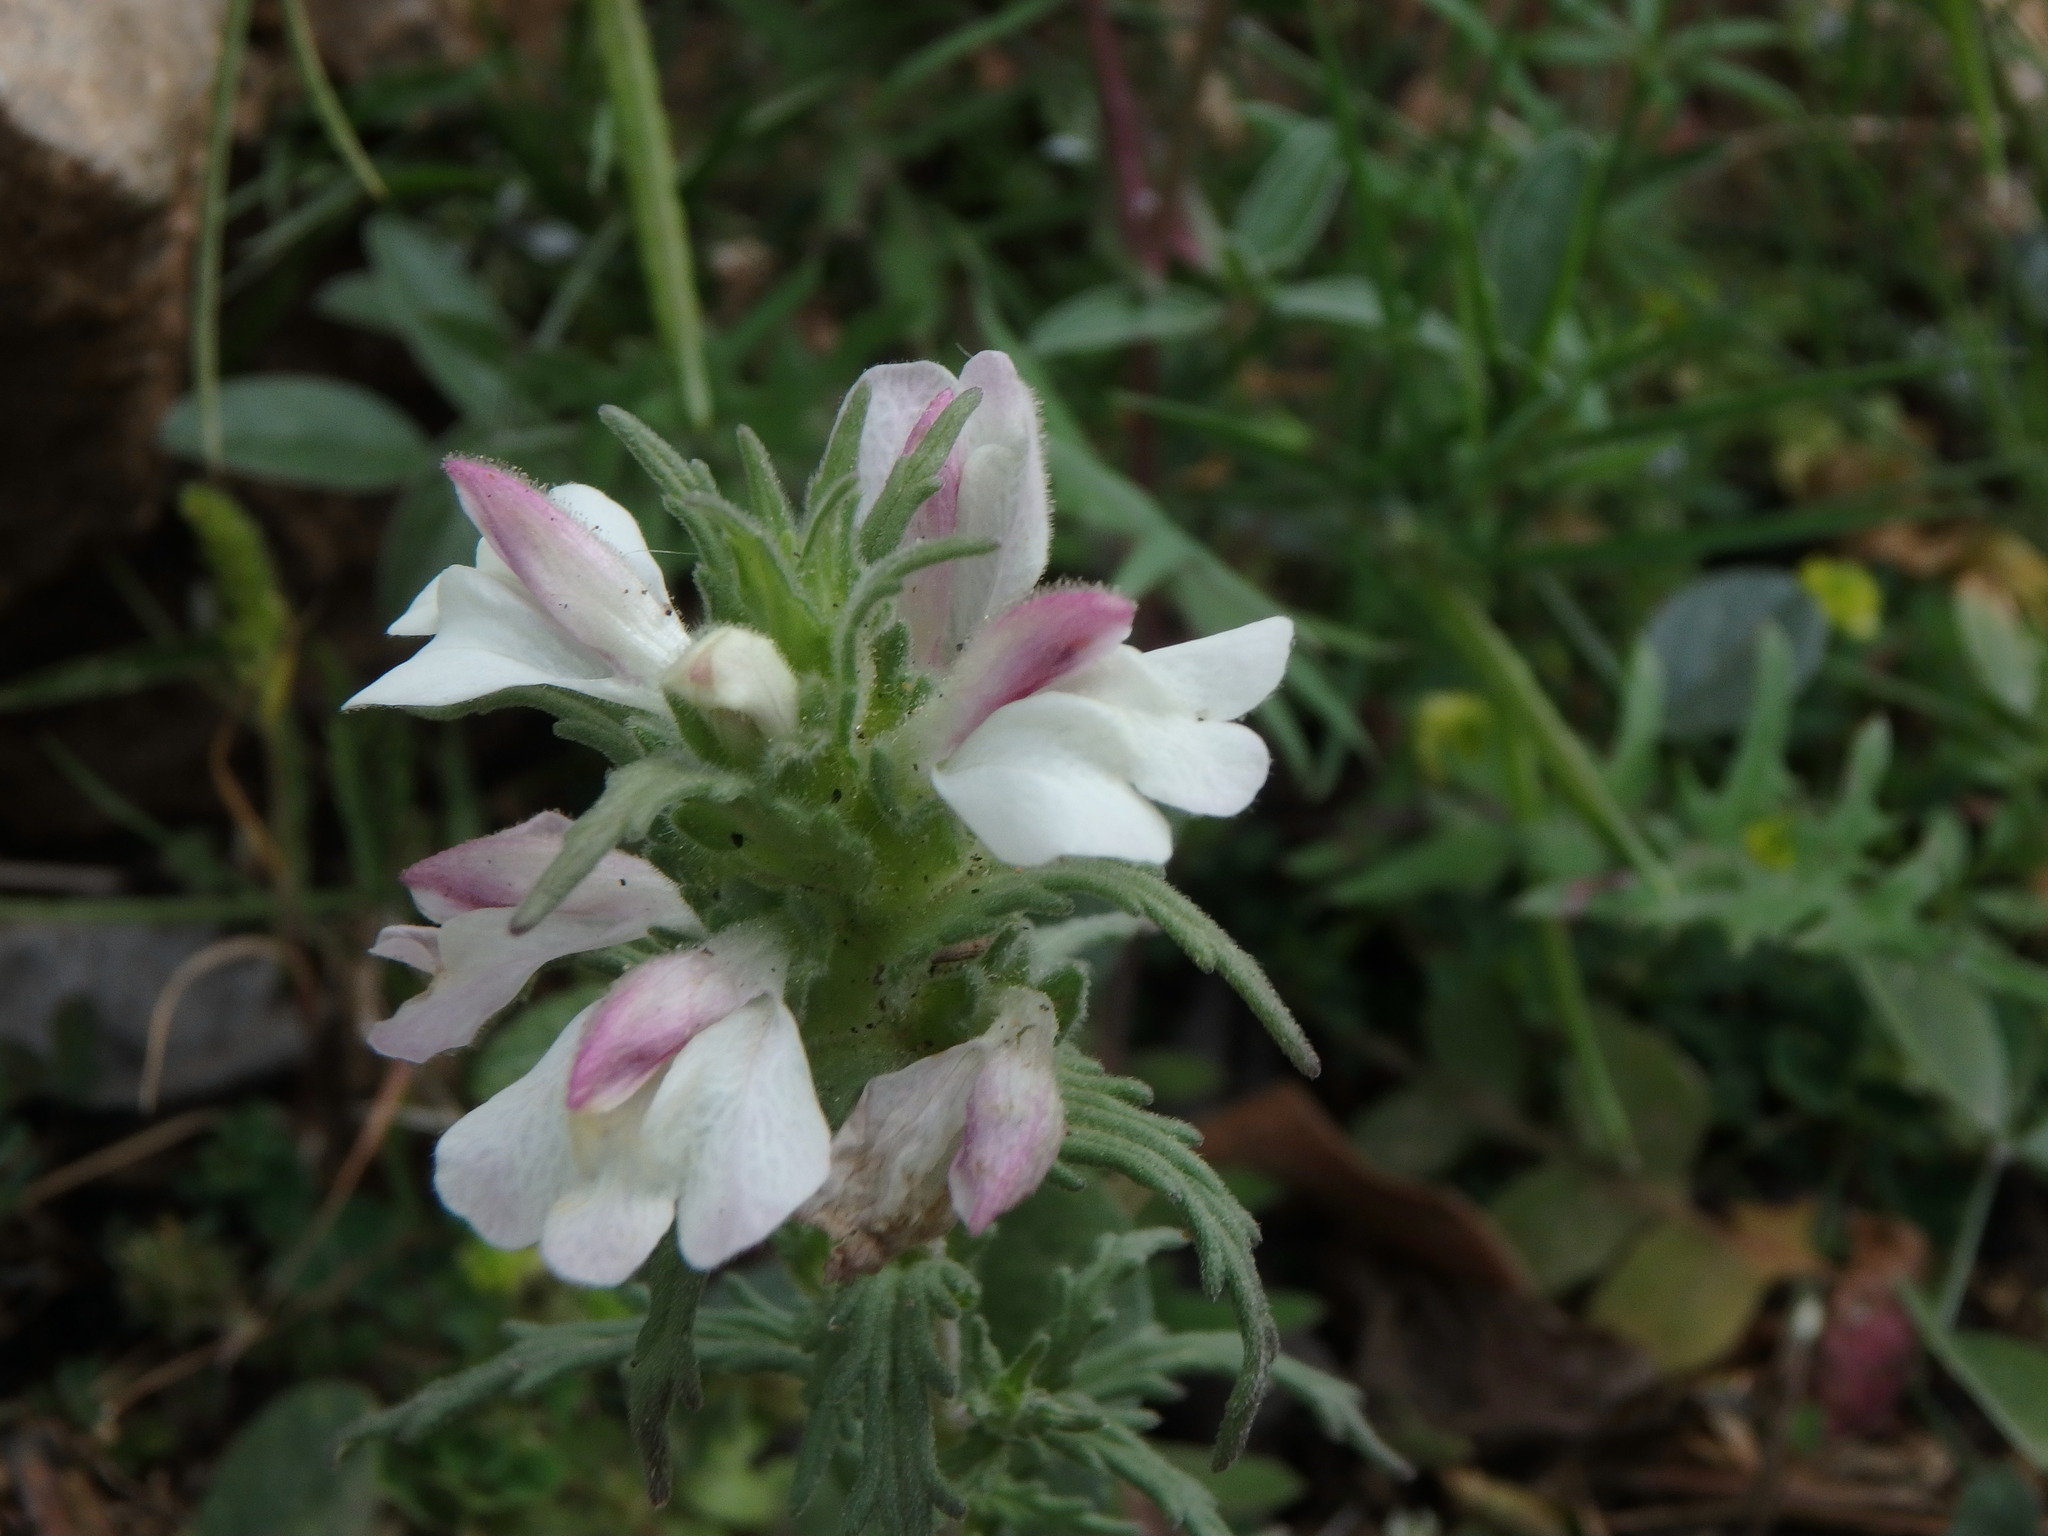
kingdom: Plantae
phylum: Tracheophyta
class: Magnoliopsida
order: Lamiales
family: Orobanchaceae
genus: Bellardia
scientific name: Bellardia trixago
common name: Mediterranean lineseed
